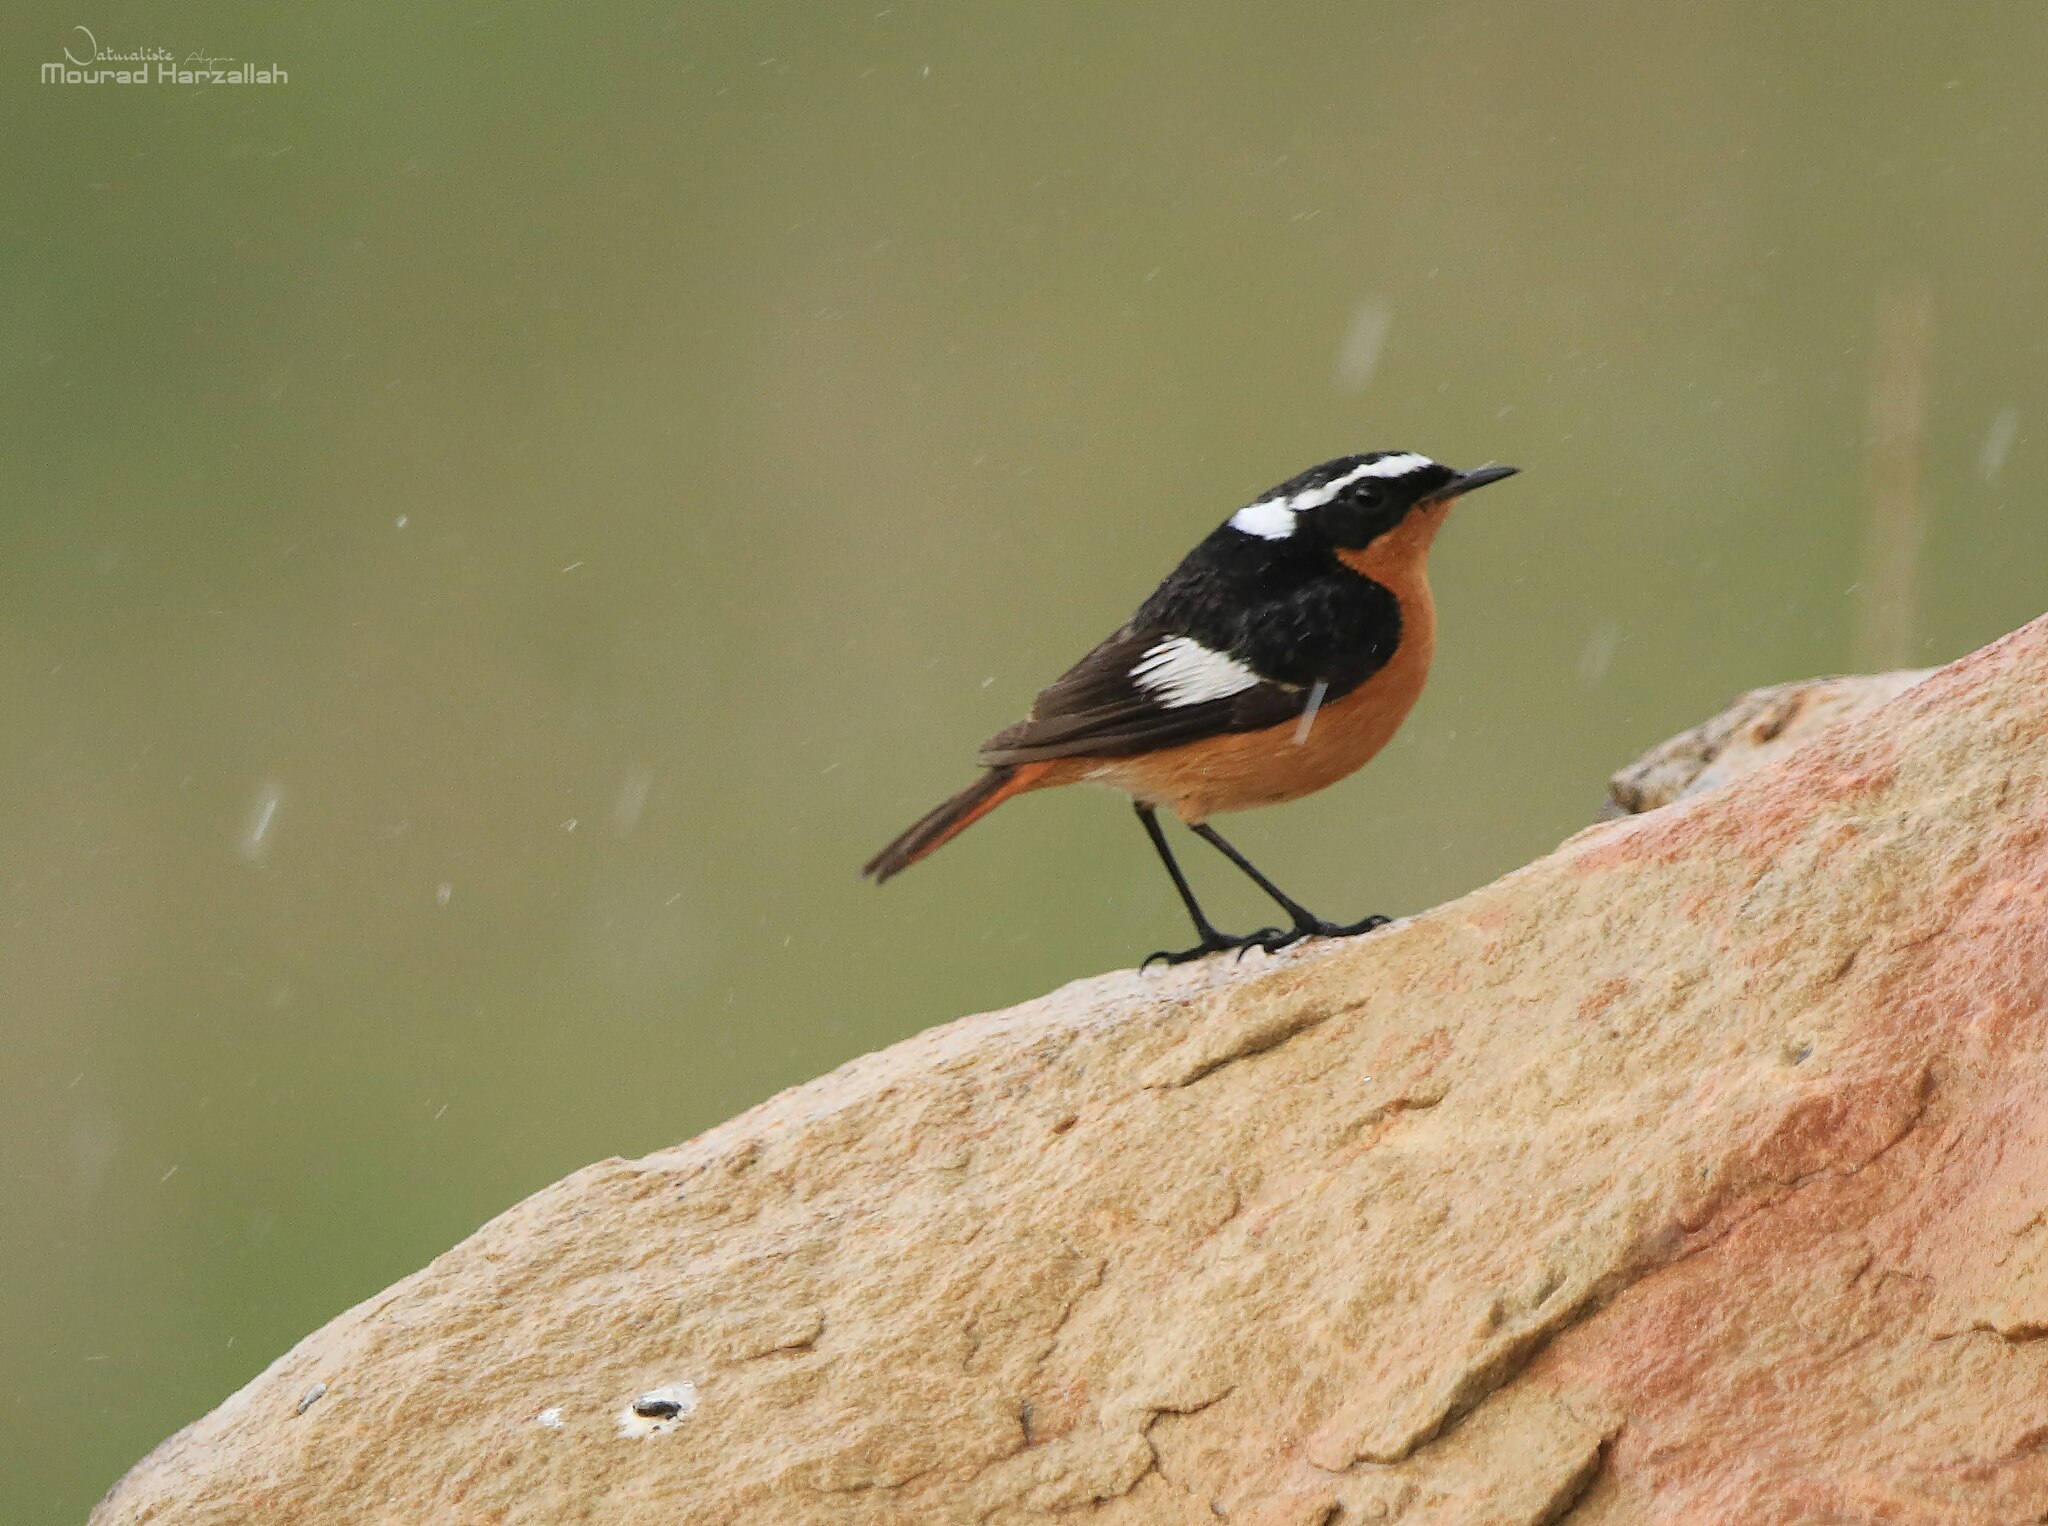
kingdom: Animalia
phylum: Chordata
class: Aves
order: Passeriformes
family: Muscicapidae
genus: Phoenicurus
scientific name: Phoenicurus moussieri
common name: Moussier's redstart
